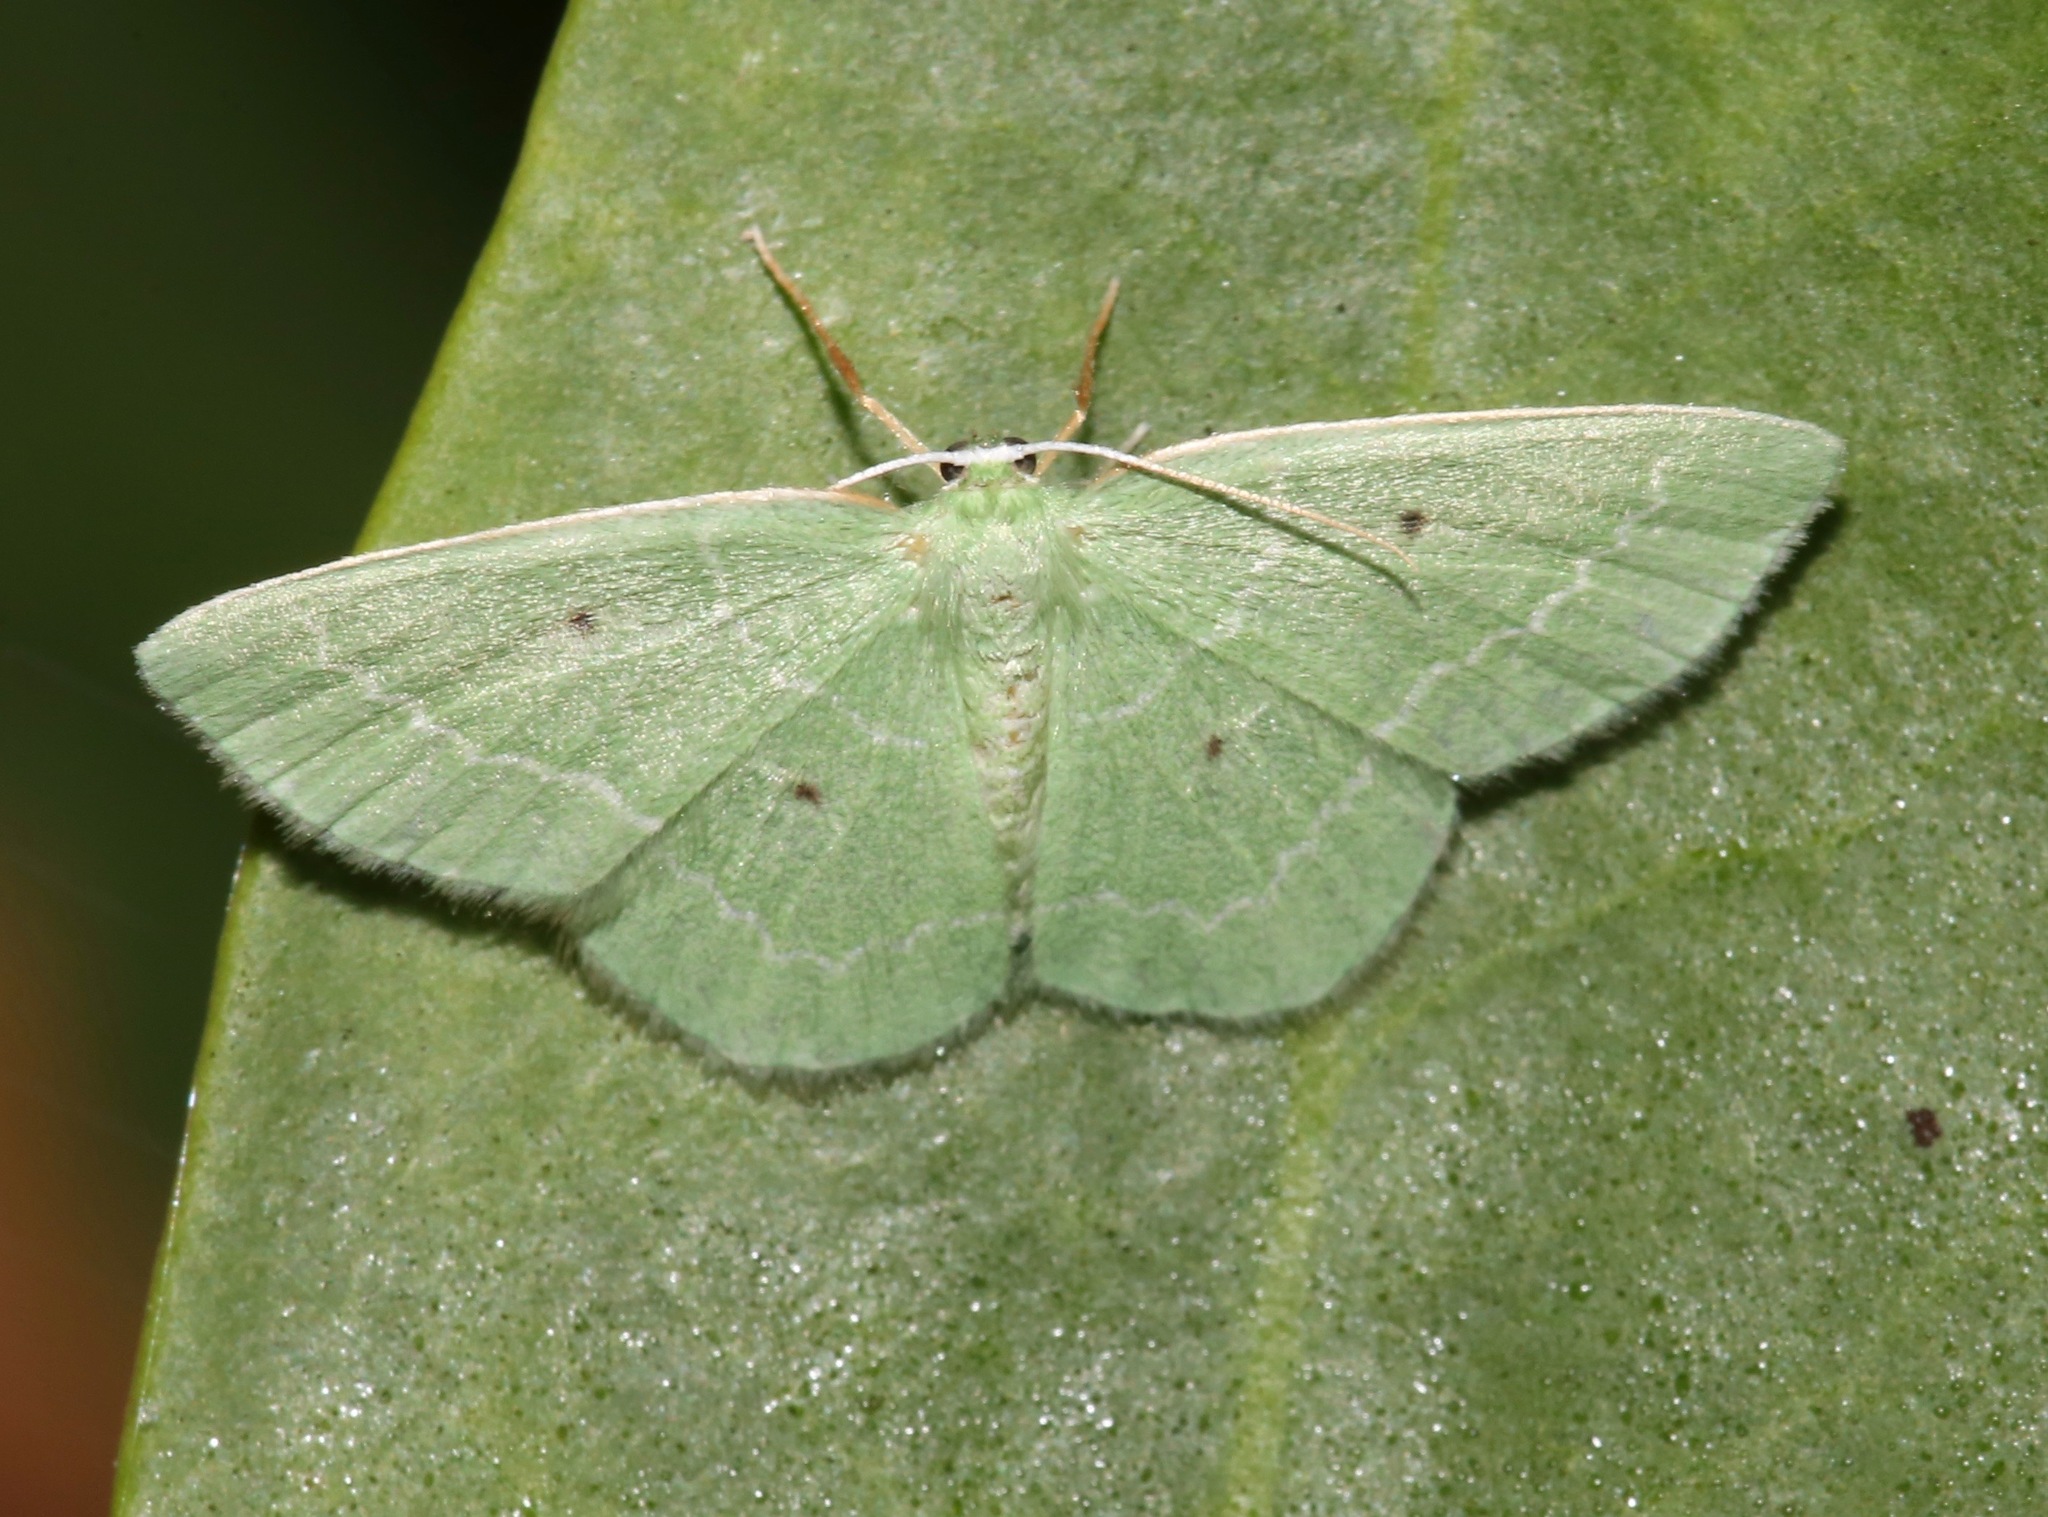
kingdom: Animalia
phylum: Arthropoda
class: Insecta
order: Lepidoptera
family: Geometridae
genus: Nemoria
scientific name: Nemoria elfa
